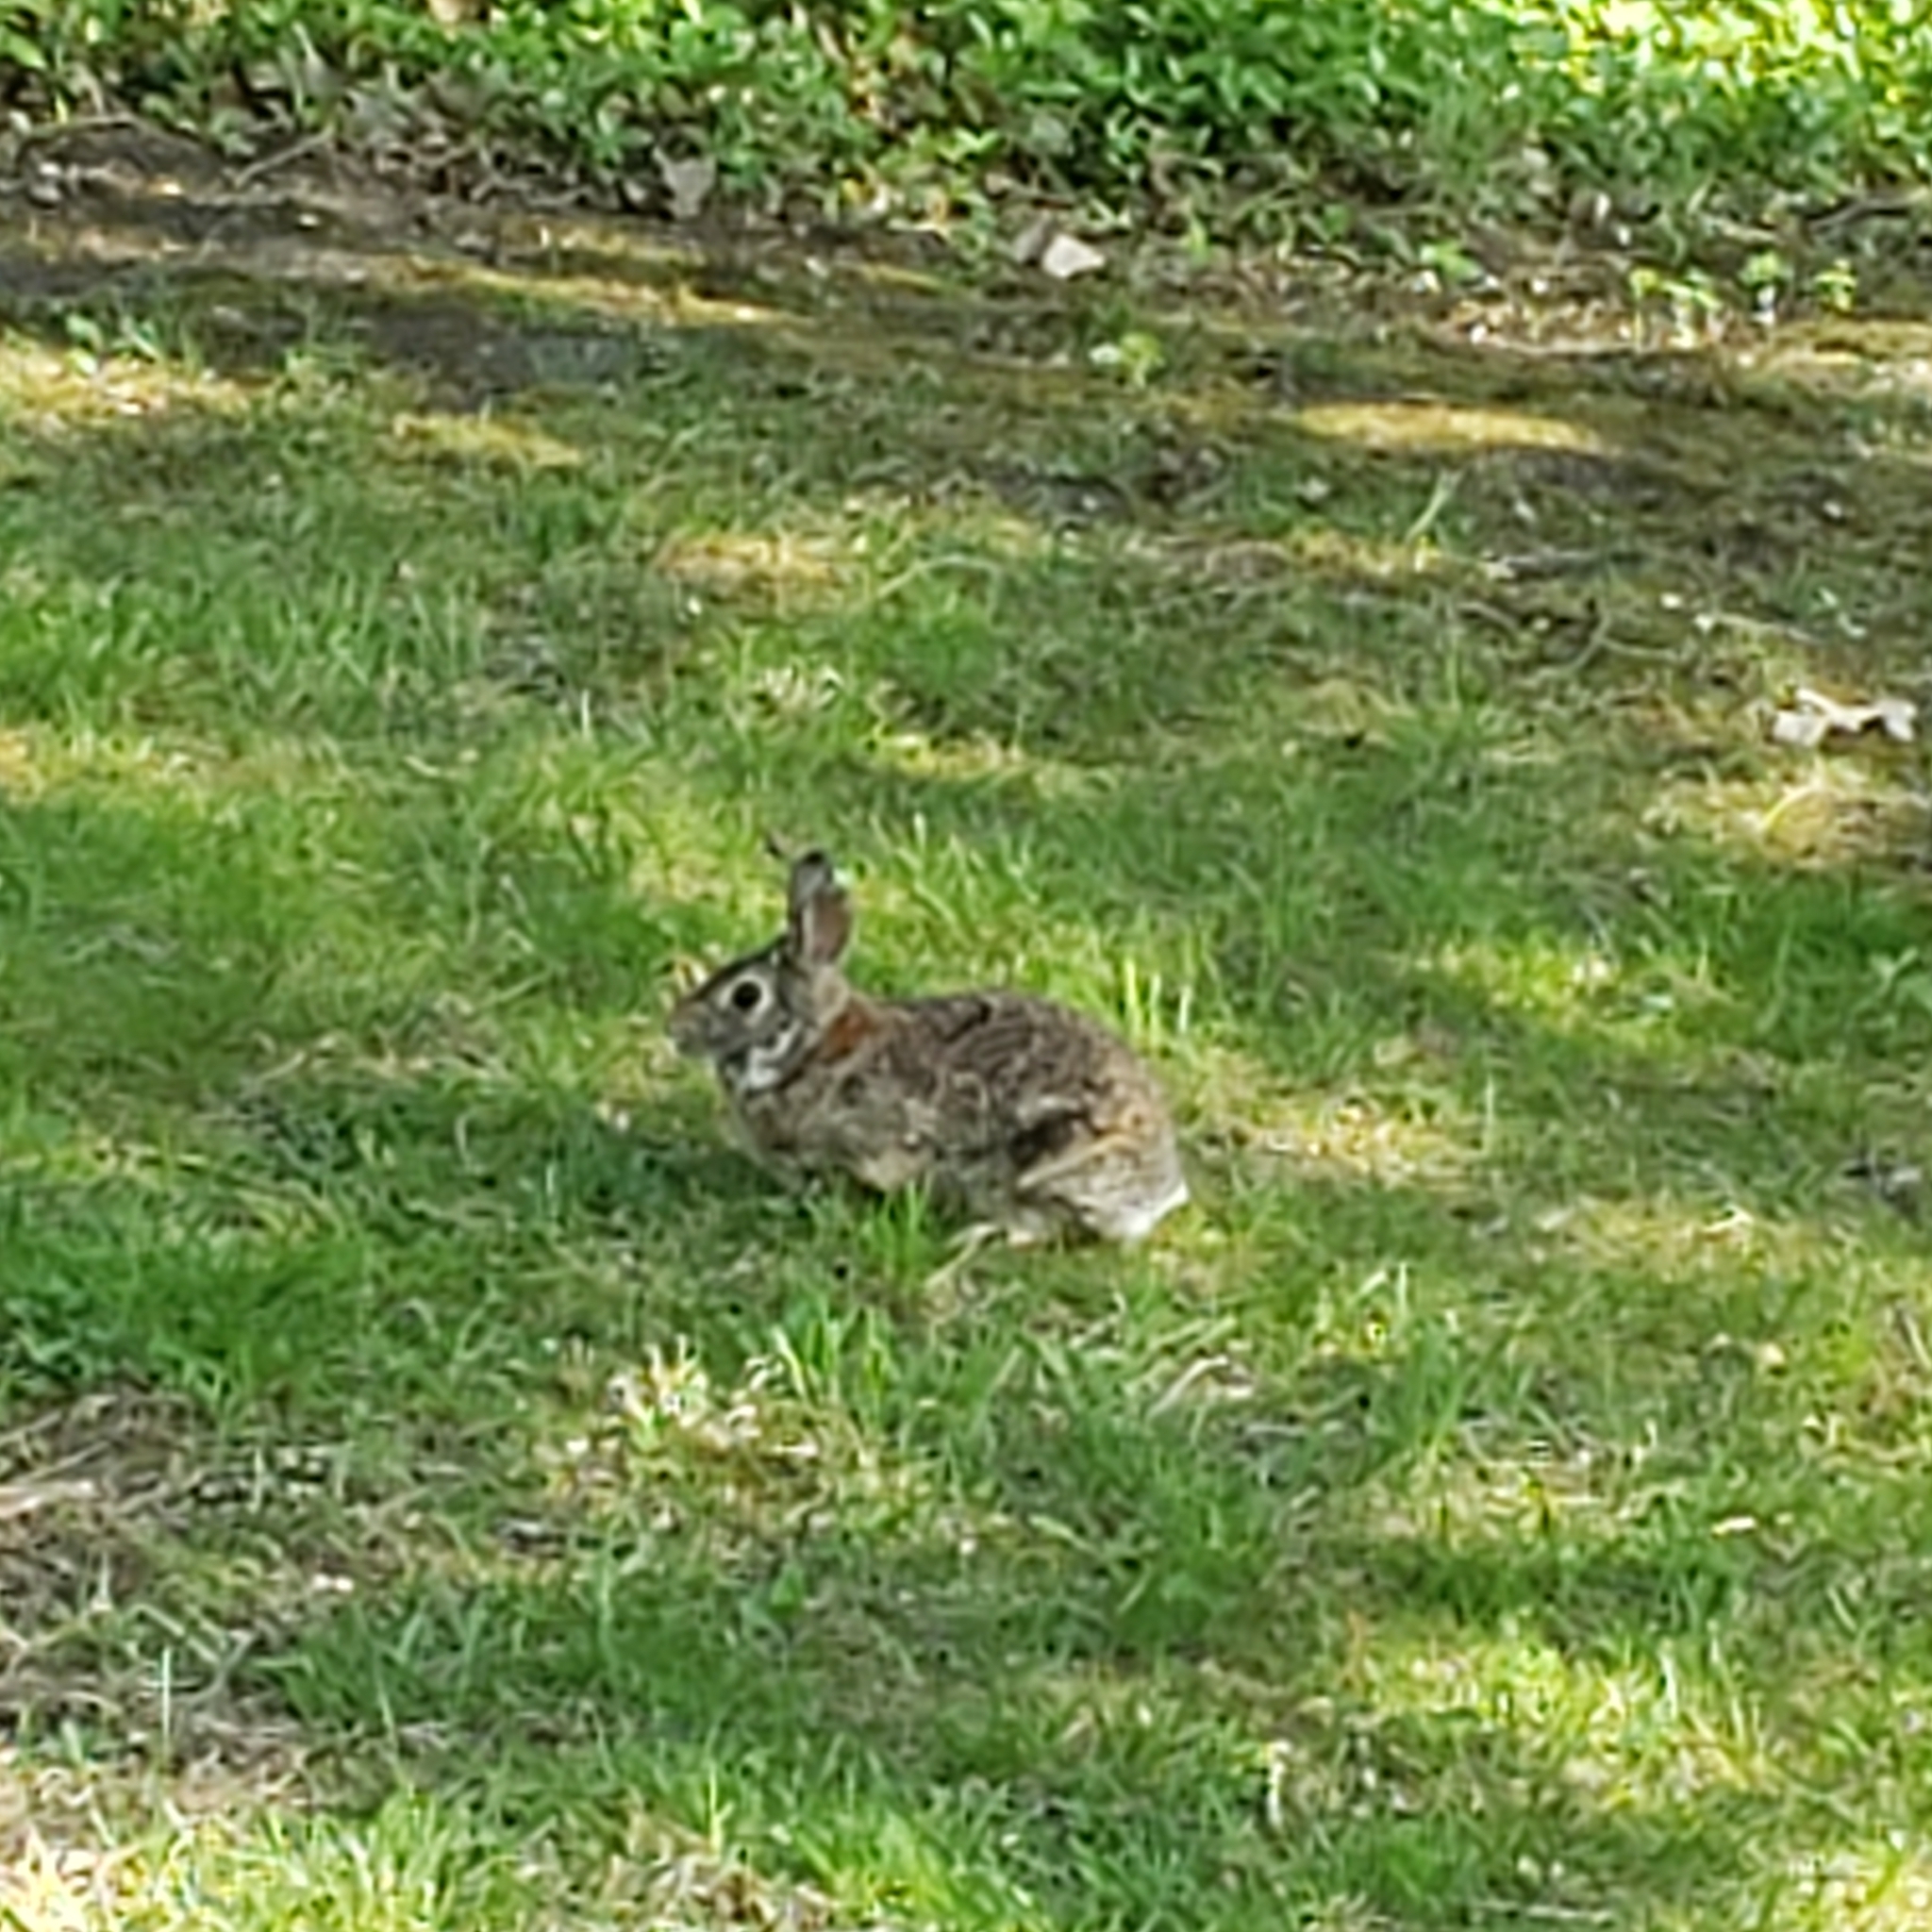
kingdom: Animalia
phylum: Chordata
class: Mammalia
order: Lagomorpha
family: Leporidae
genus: Sylvilagus
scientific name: Sylvilagus floridanus
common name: Eastern cottontail
